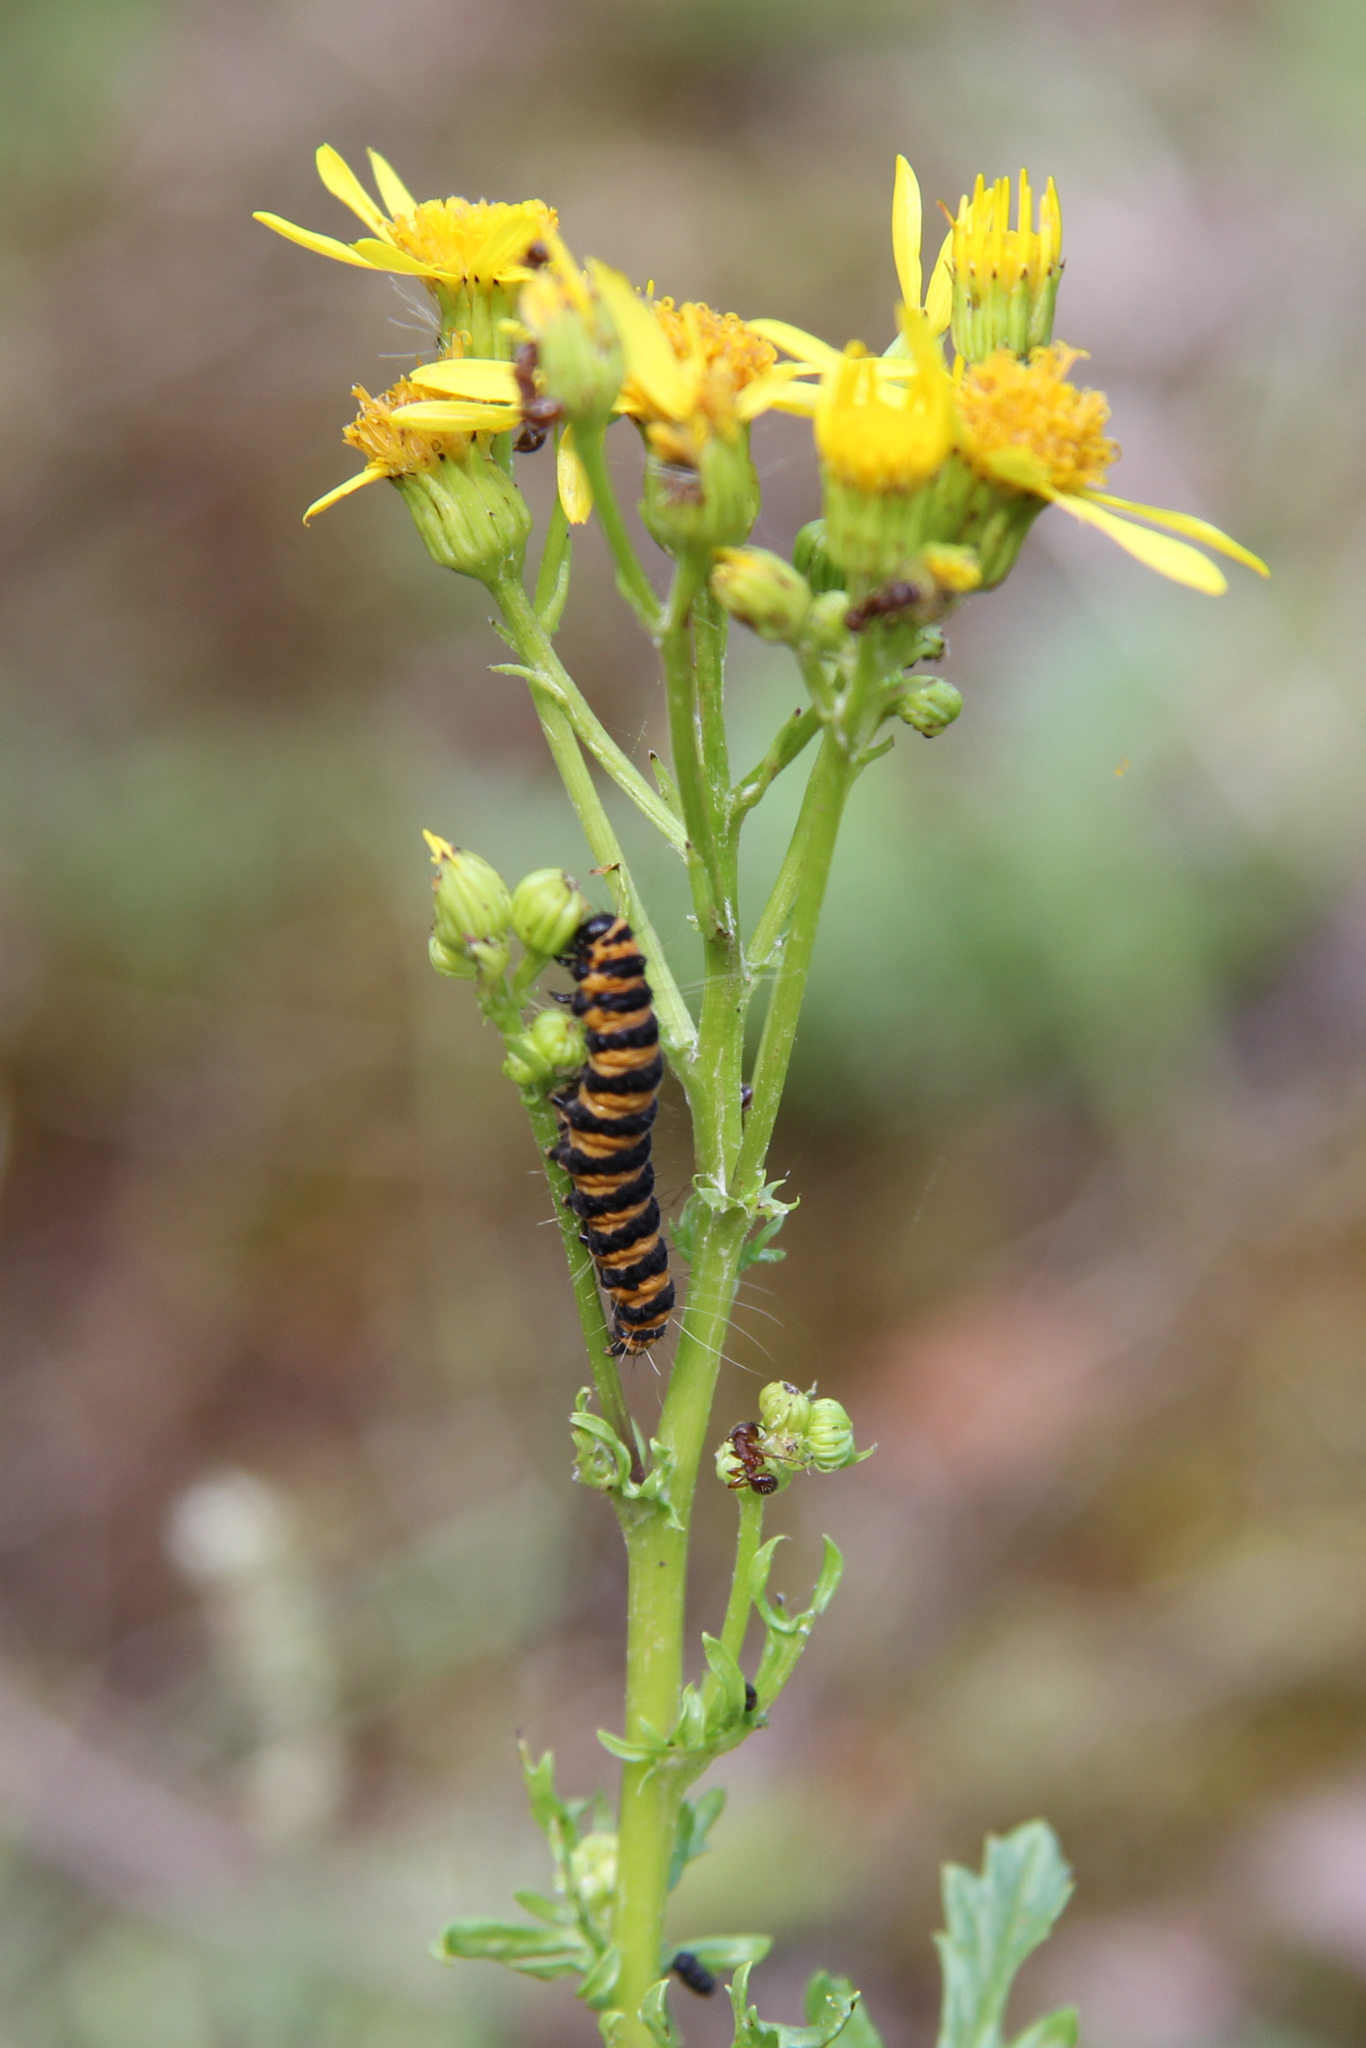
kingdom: Animalia
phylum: Arthropoda
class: Insecta
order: Lepidoptera
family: Erebidae
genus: Tyria
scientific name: Tyria jacobaeae
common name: Cinnabar
